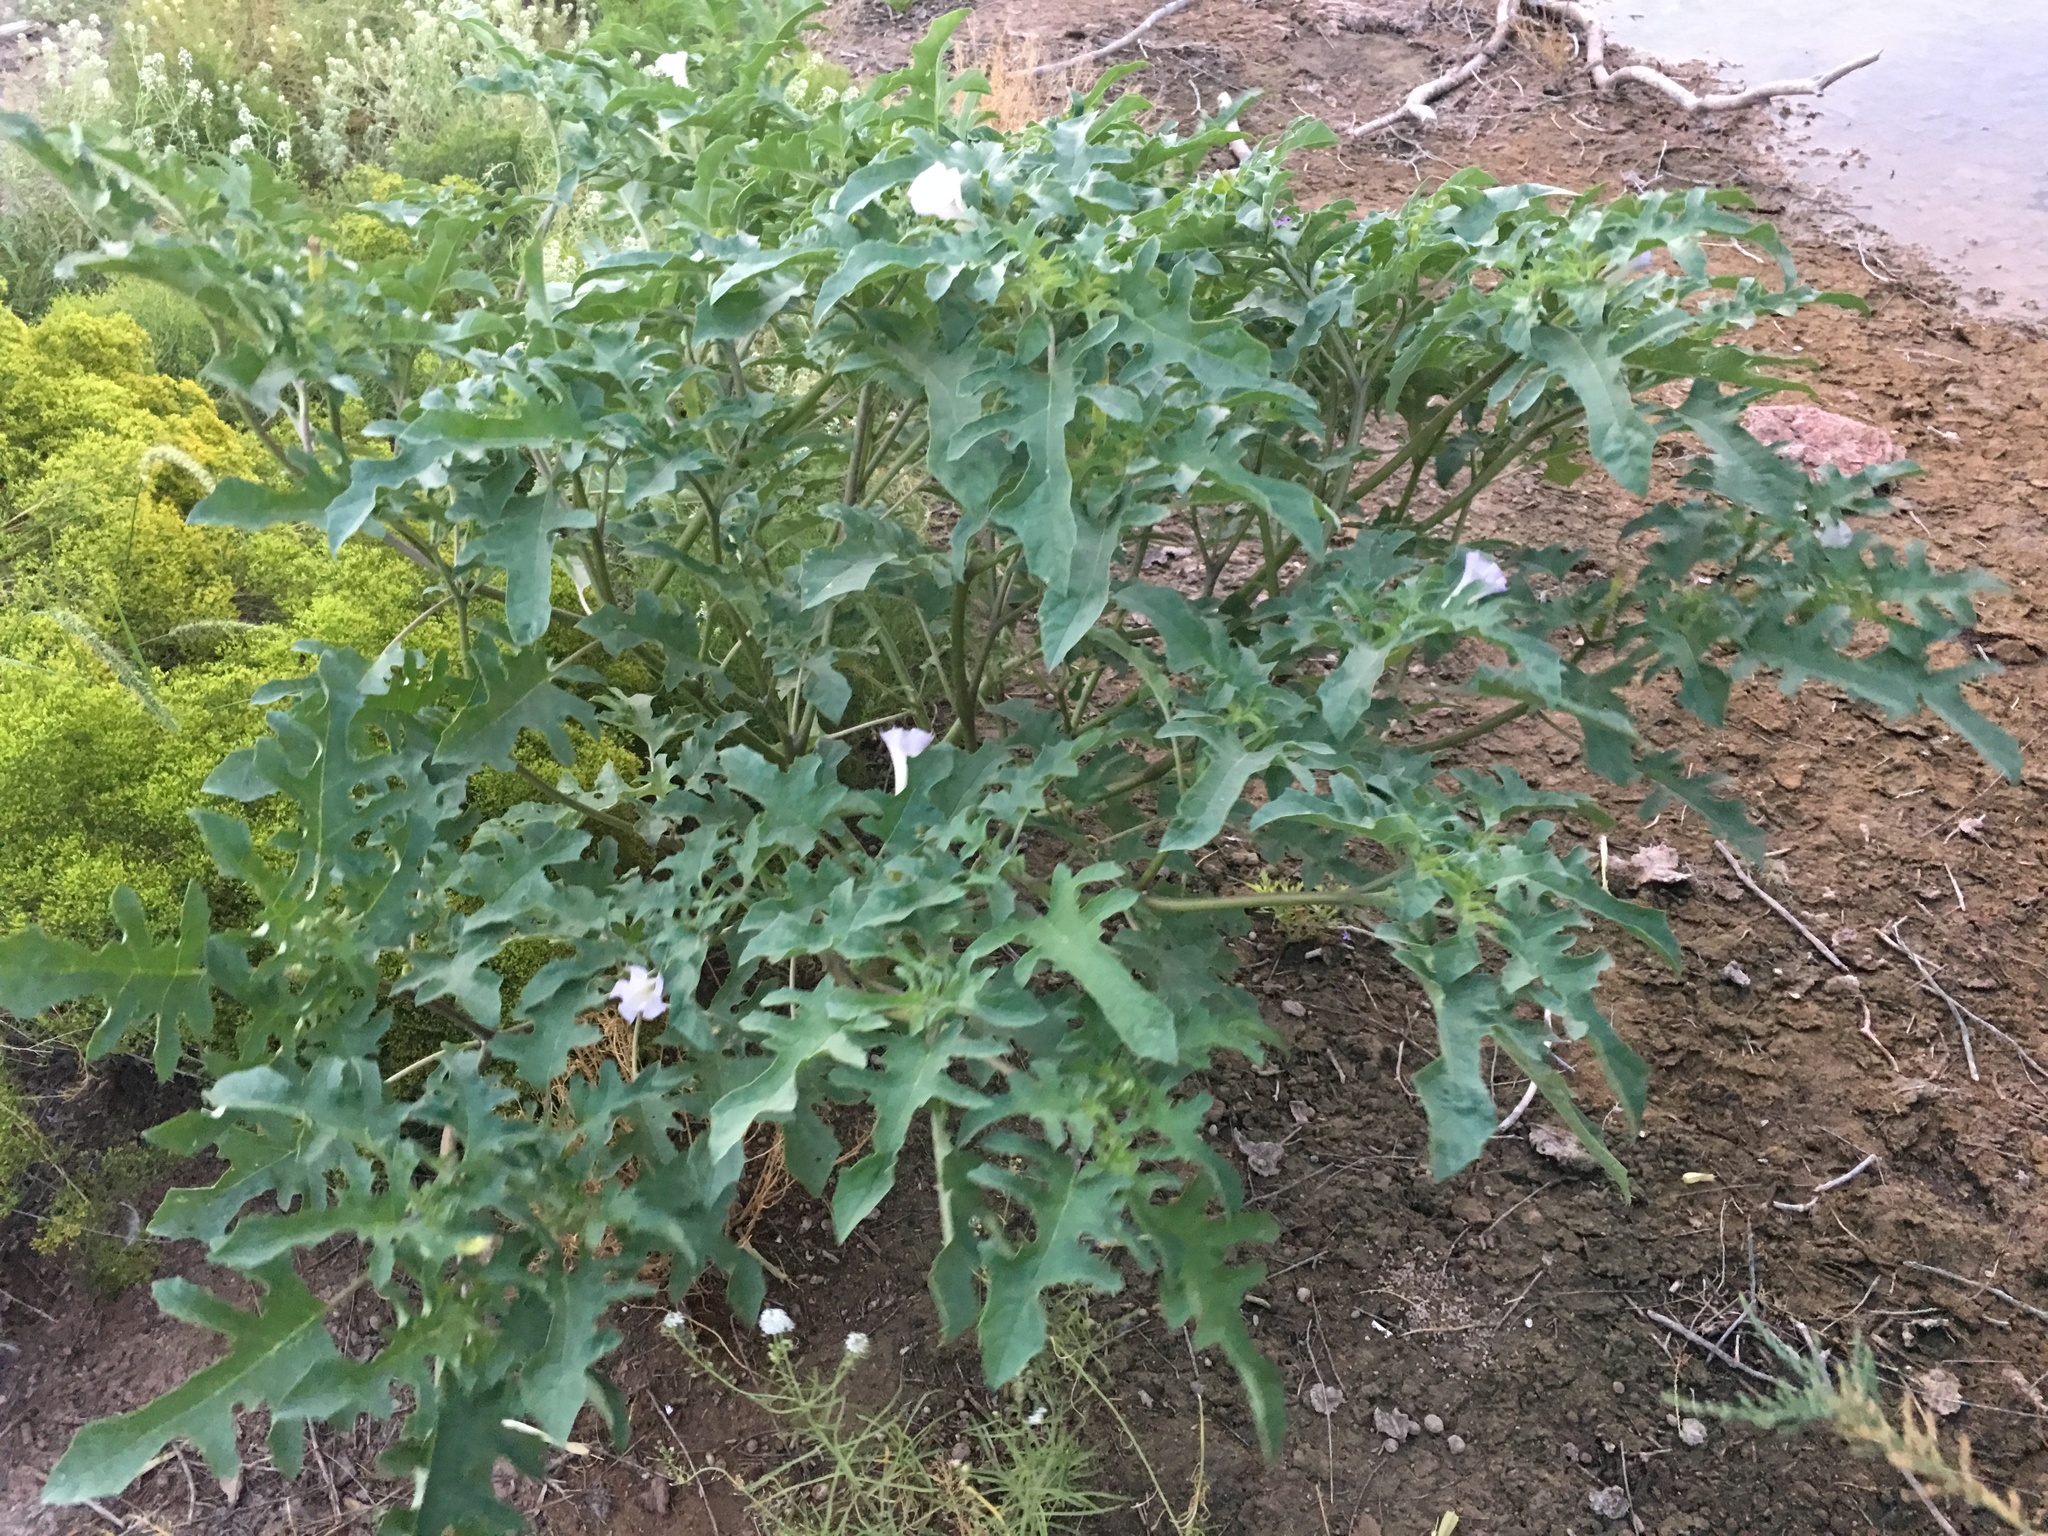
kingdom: Plantae
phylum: Tracheophyta
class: Magnoliopsida
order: Solanales
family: Solanaceae
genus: Datura
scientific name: Datura quercifolia
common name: Oak-leaf datura
